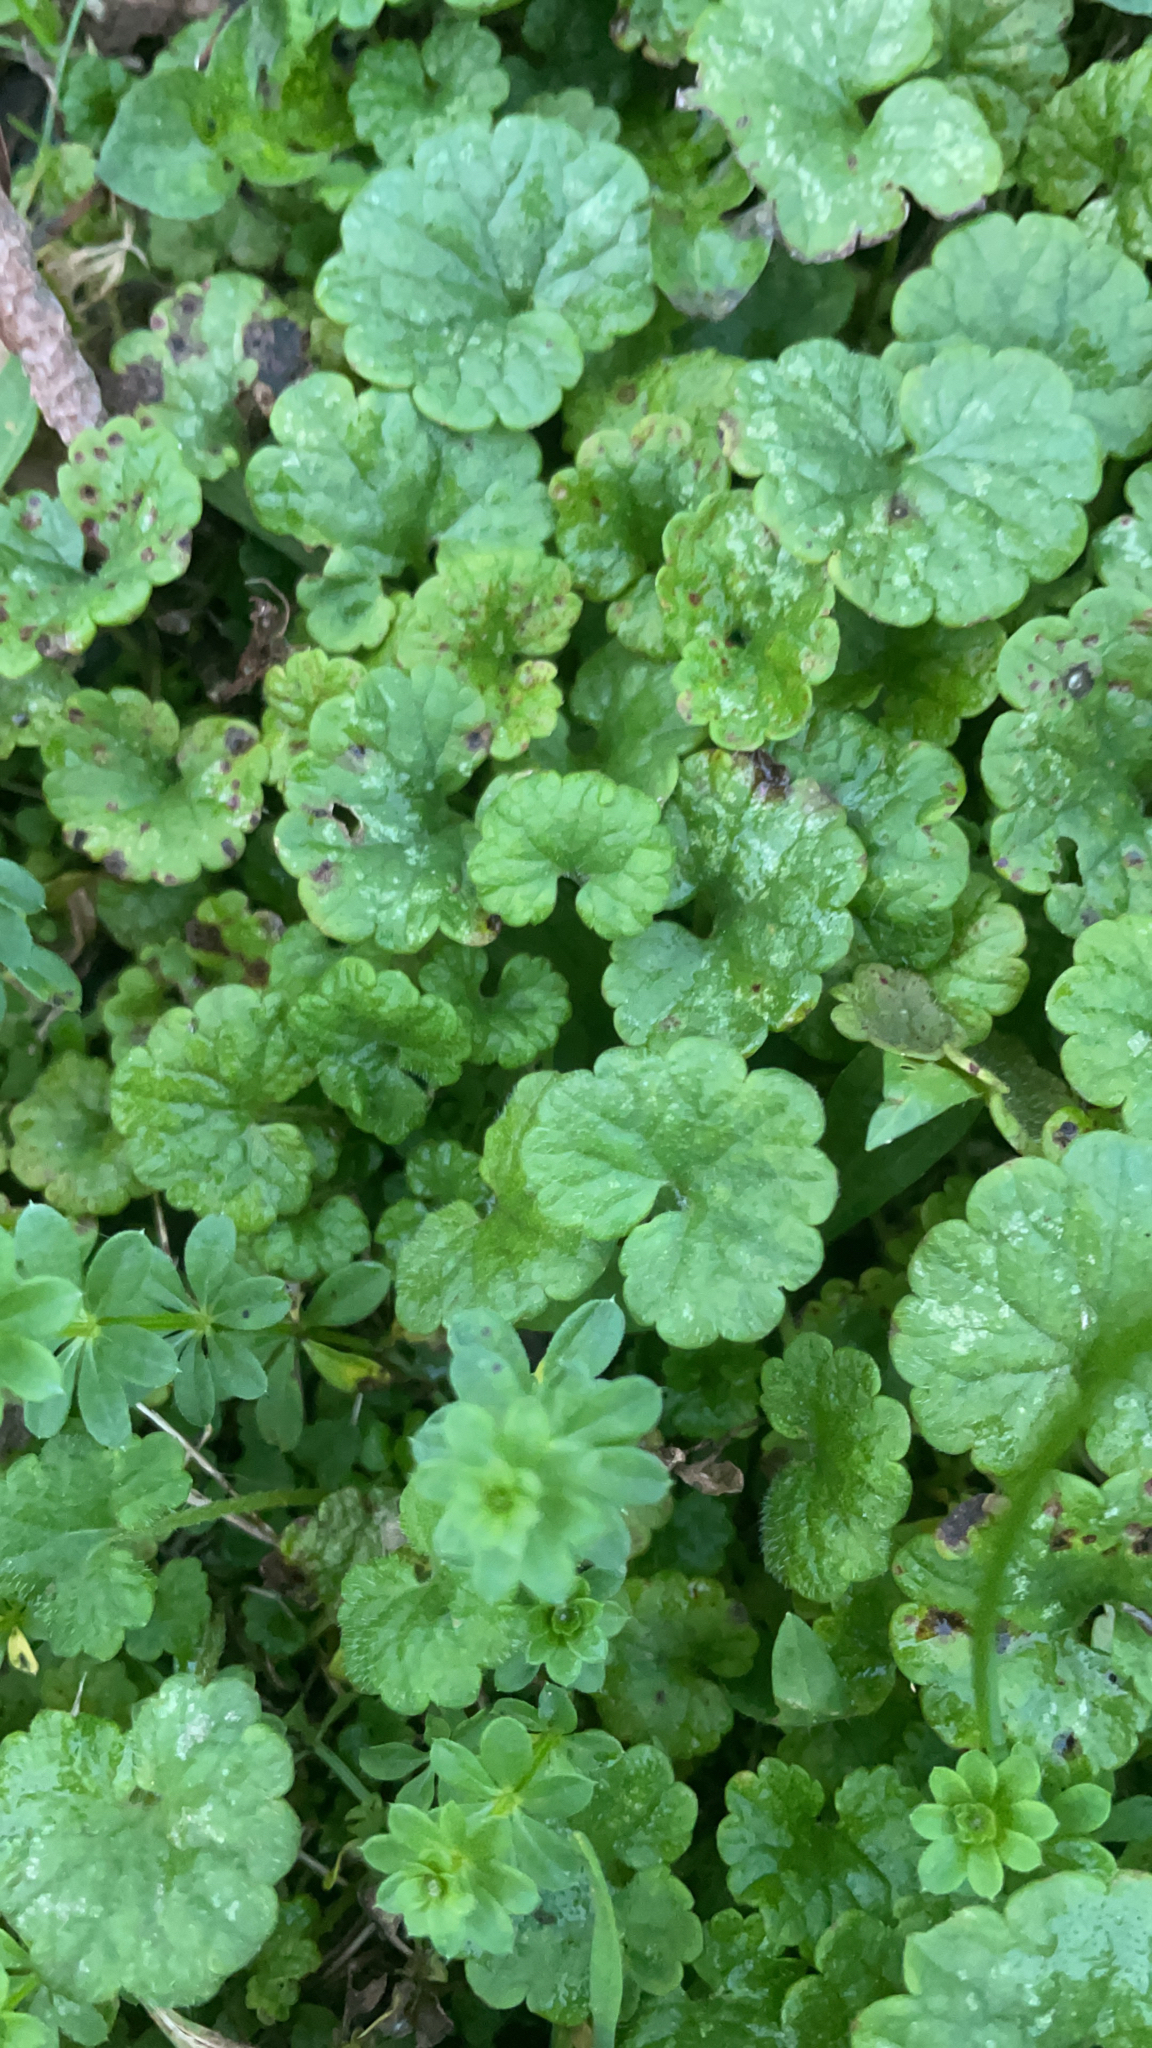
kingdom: Plantae
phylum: Tracheophyta
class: Magnoliopsida
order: Lamiales
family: Lamiaceae
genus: Glechoma
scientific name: Glechoma hederacea
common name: Ground ivy
